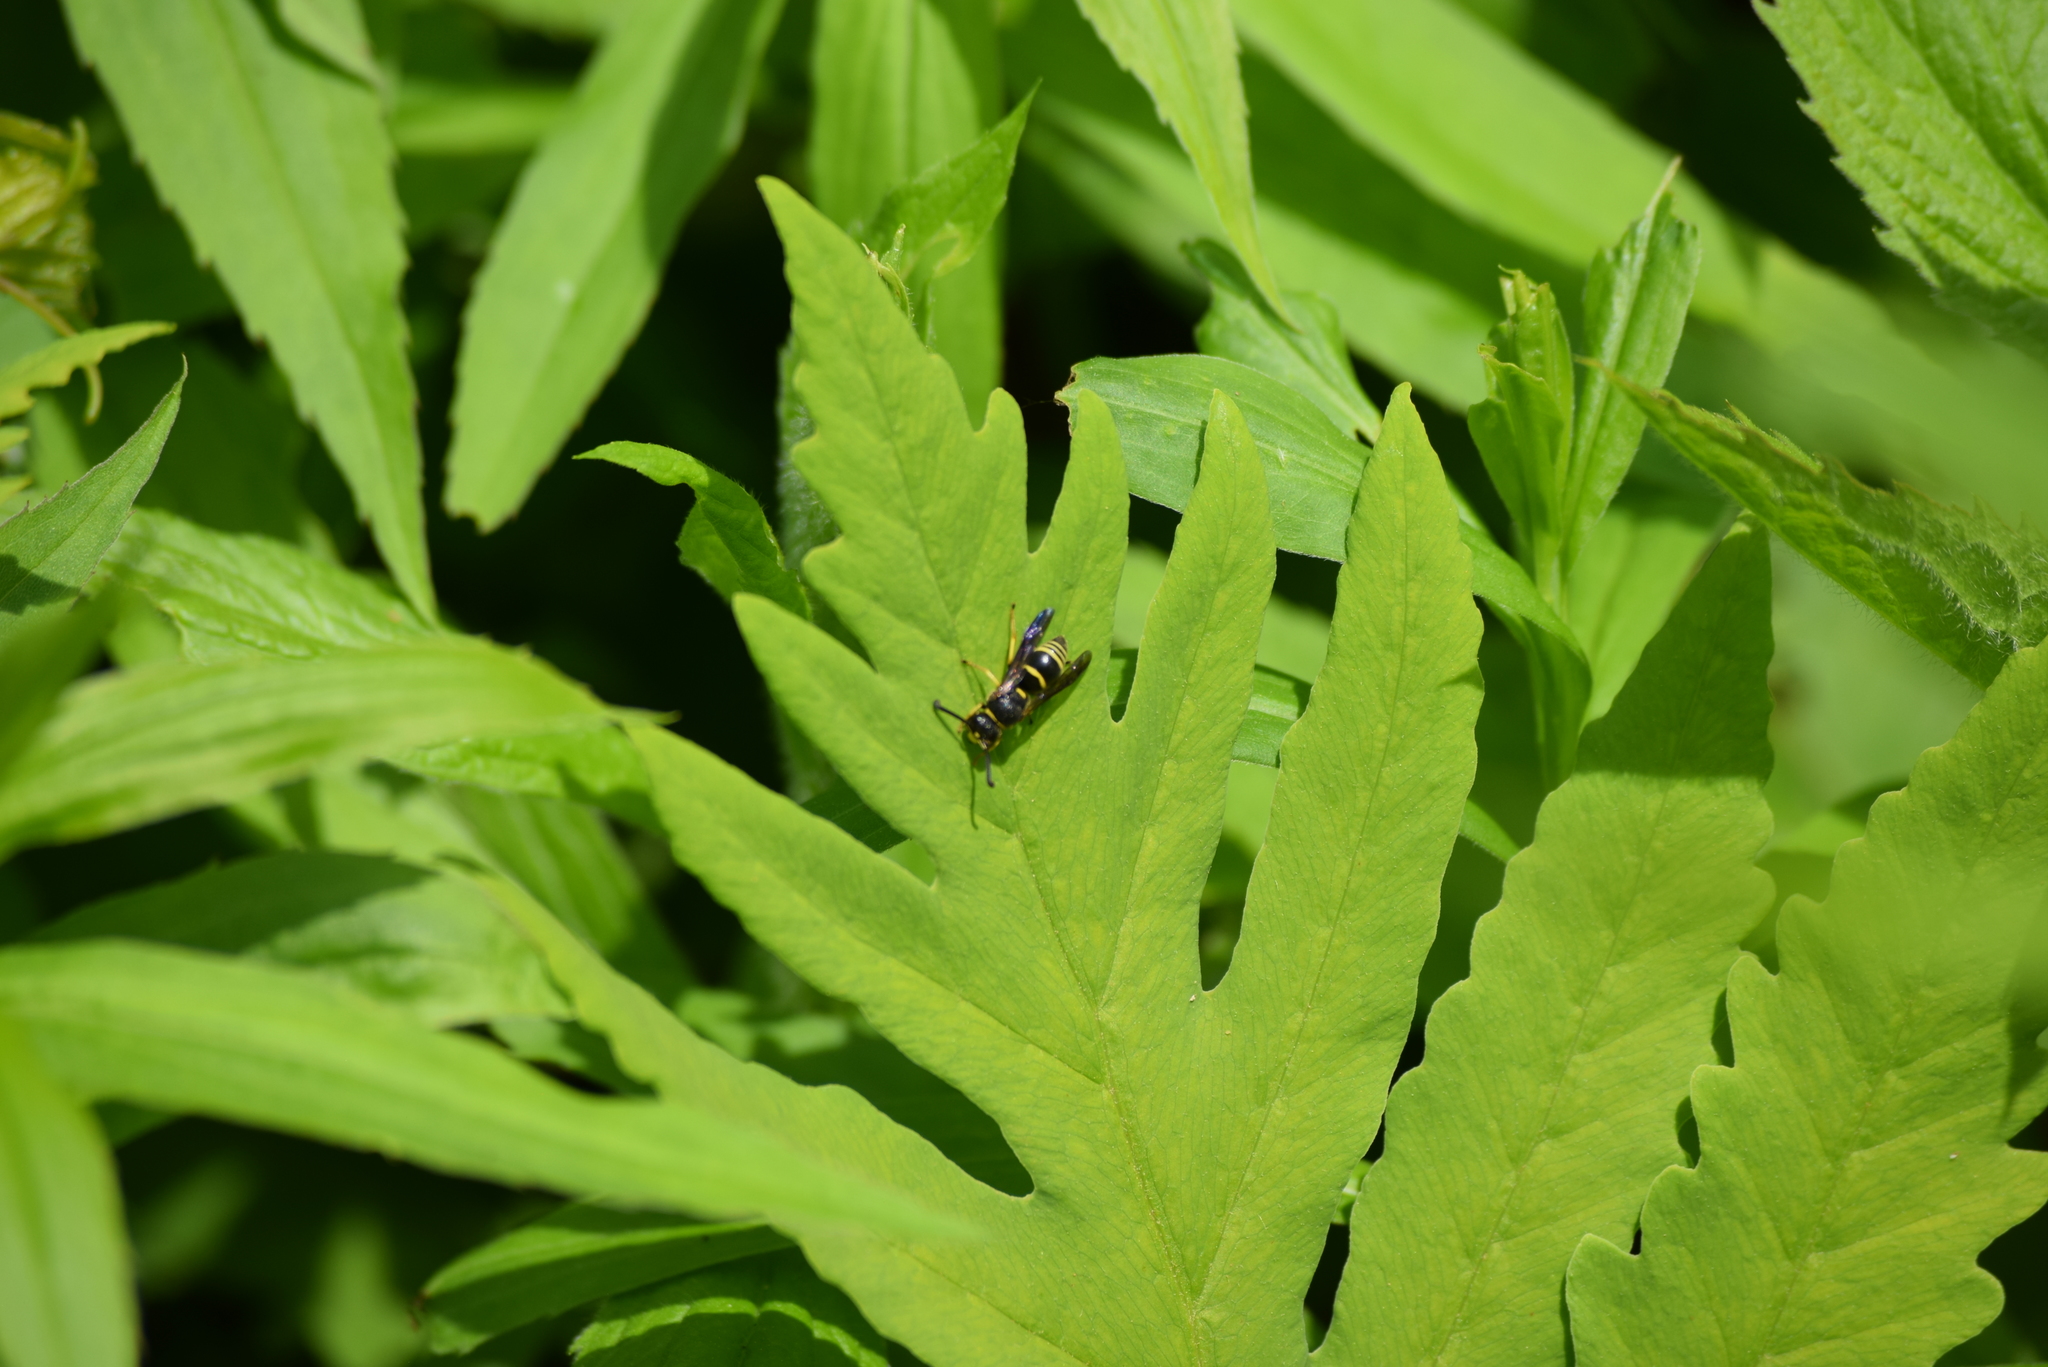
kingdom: Animalia
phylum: Arthropoda
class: Insecta
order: Hymenoptera
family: Eumenidae
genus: Euodynerus
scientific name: Euodynerus foraminatus
